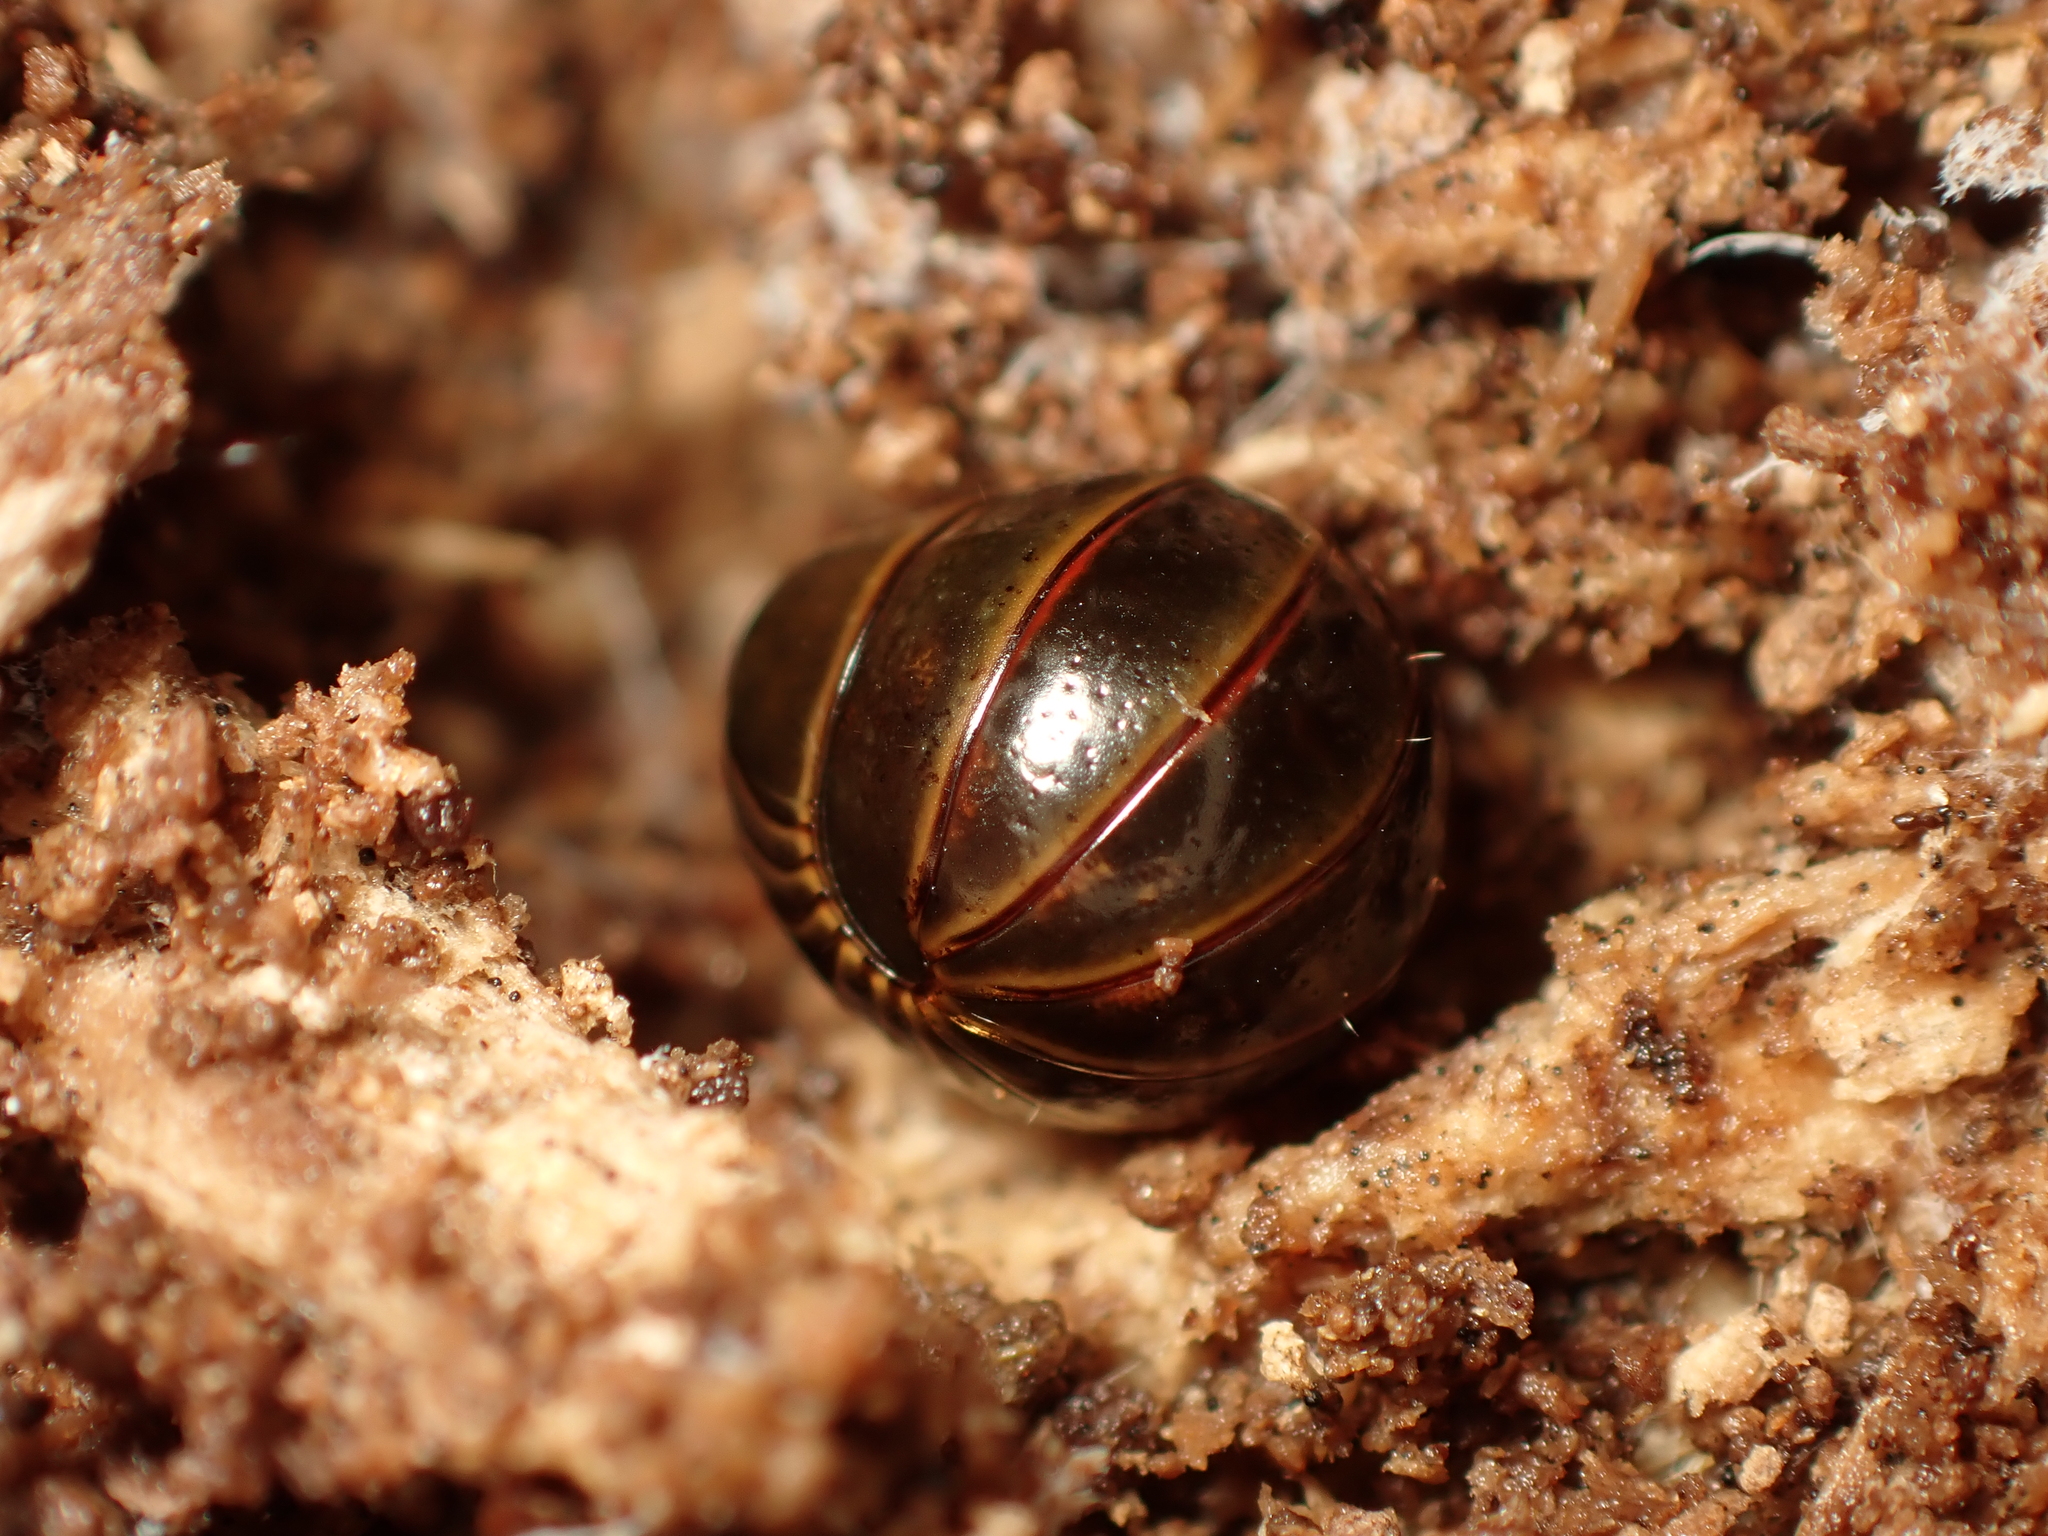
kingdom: Animalia
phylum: Arthropoda
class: Diplopoda
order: Sphaerotheriida
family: Procyliosomatidae
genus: Procyliosoma
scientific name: Procyliosoma delacyi
